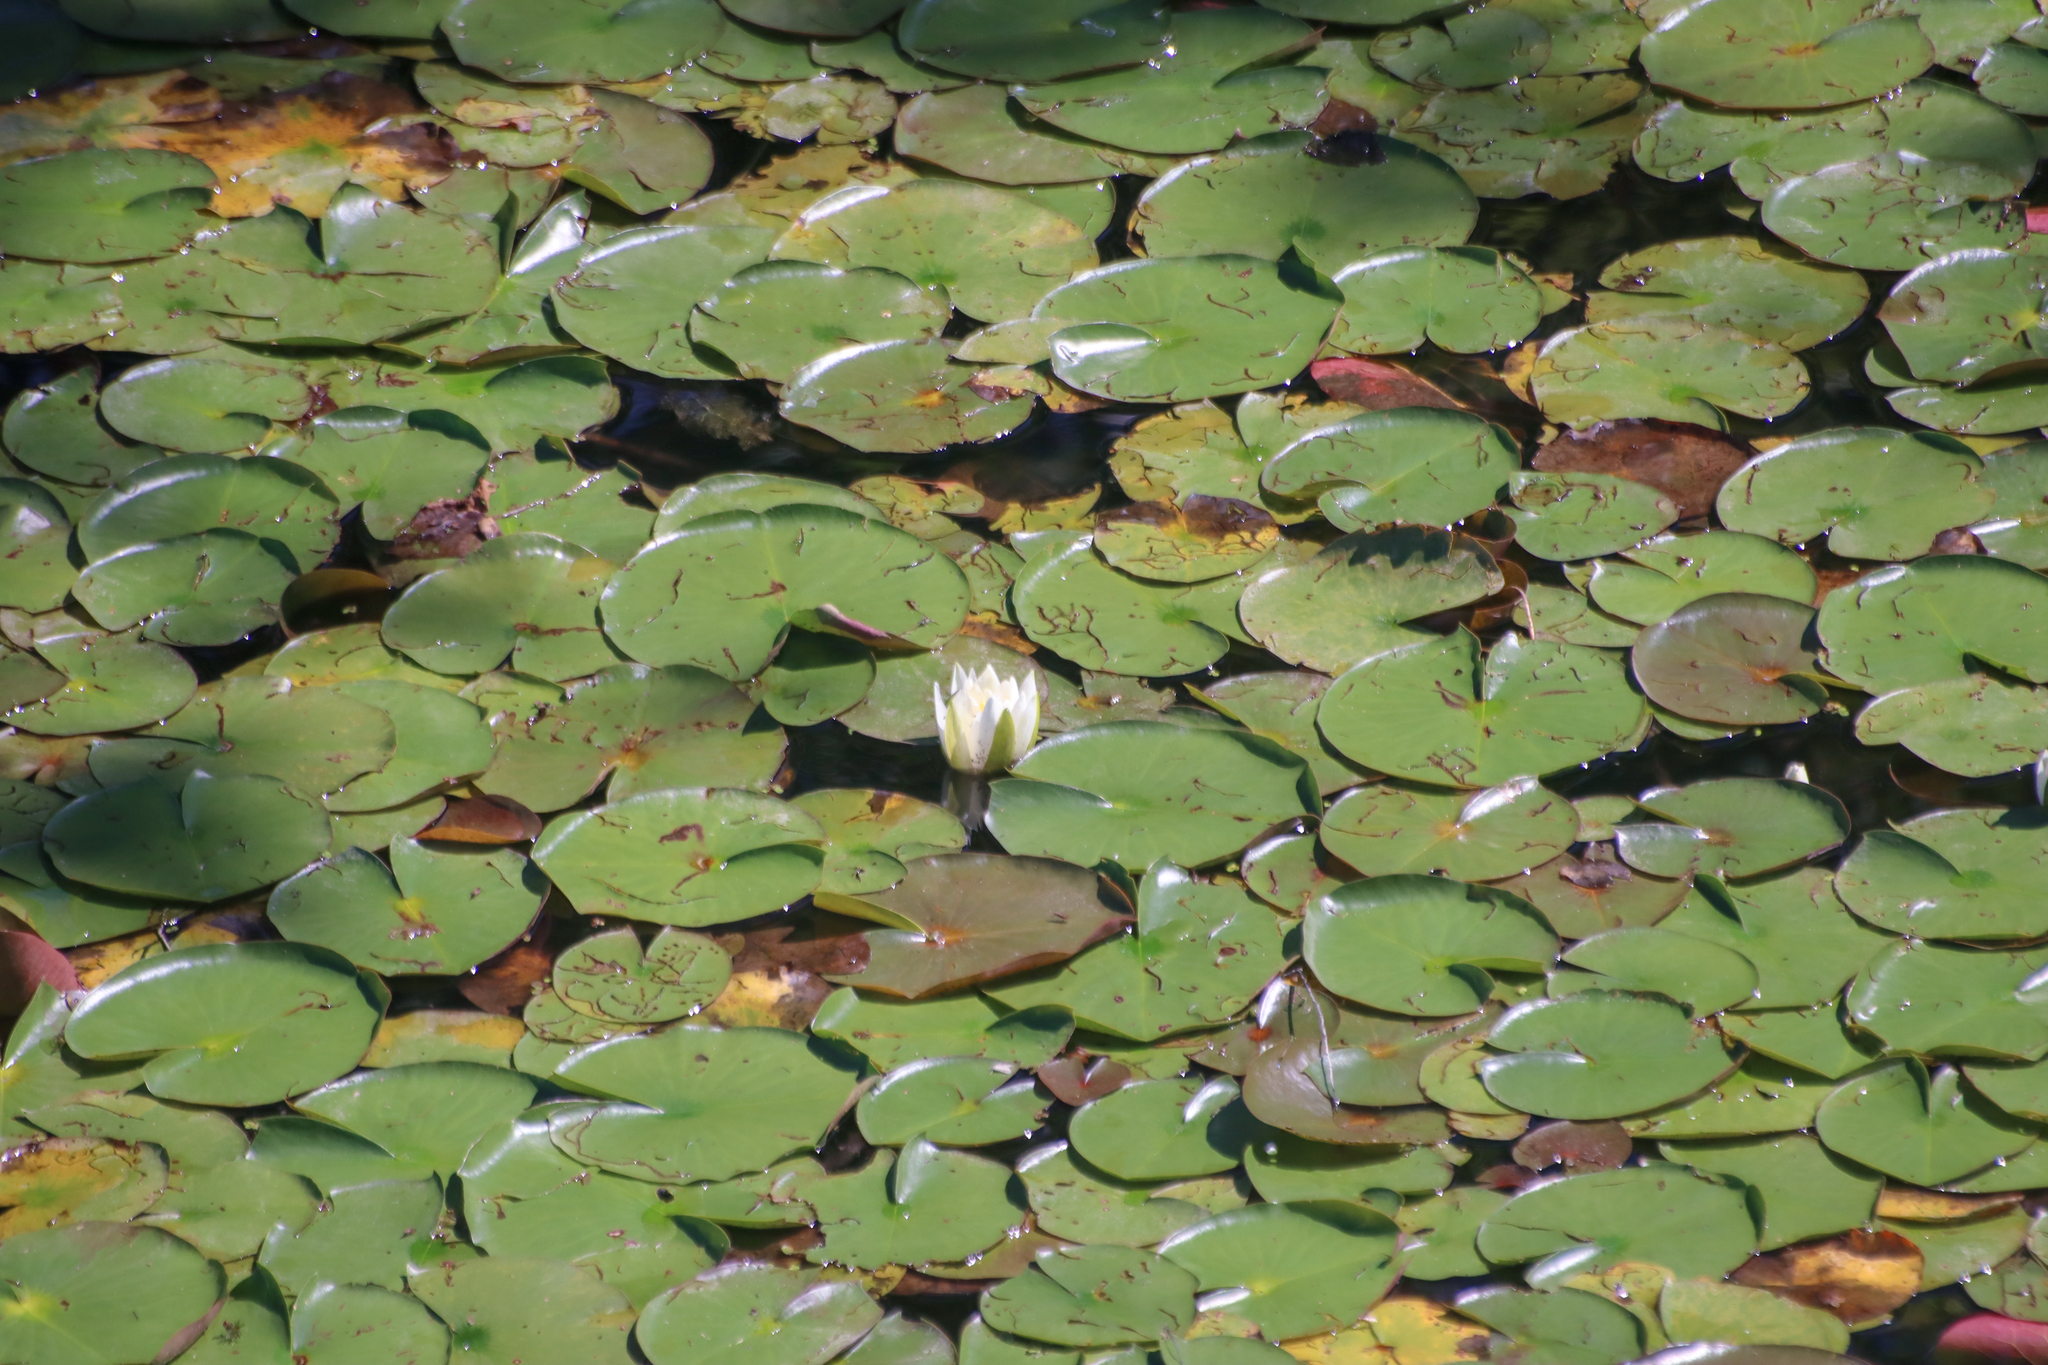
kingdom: Plantae
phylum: Tracheophyta
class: Magnoliopsida
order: Nymphaeales
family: Nymphaeaceae
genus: Nymphaea
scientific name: Nymphaea odorata
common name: Fragrant water-lily
